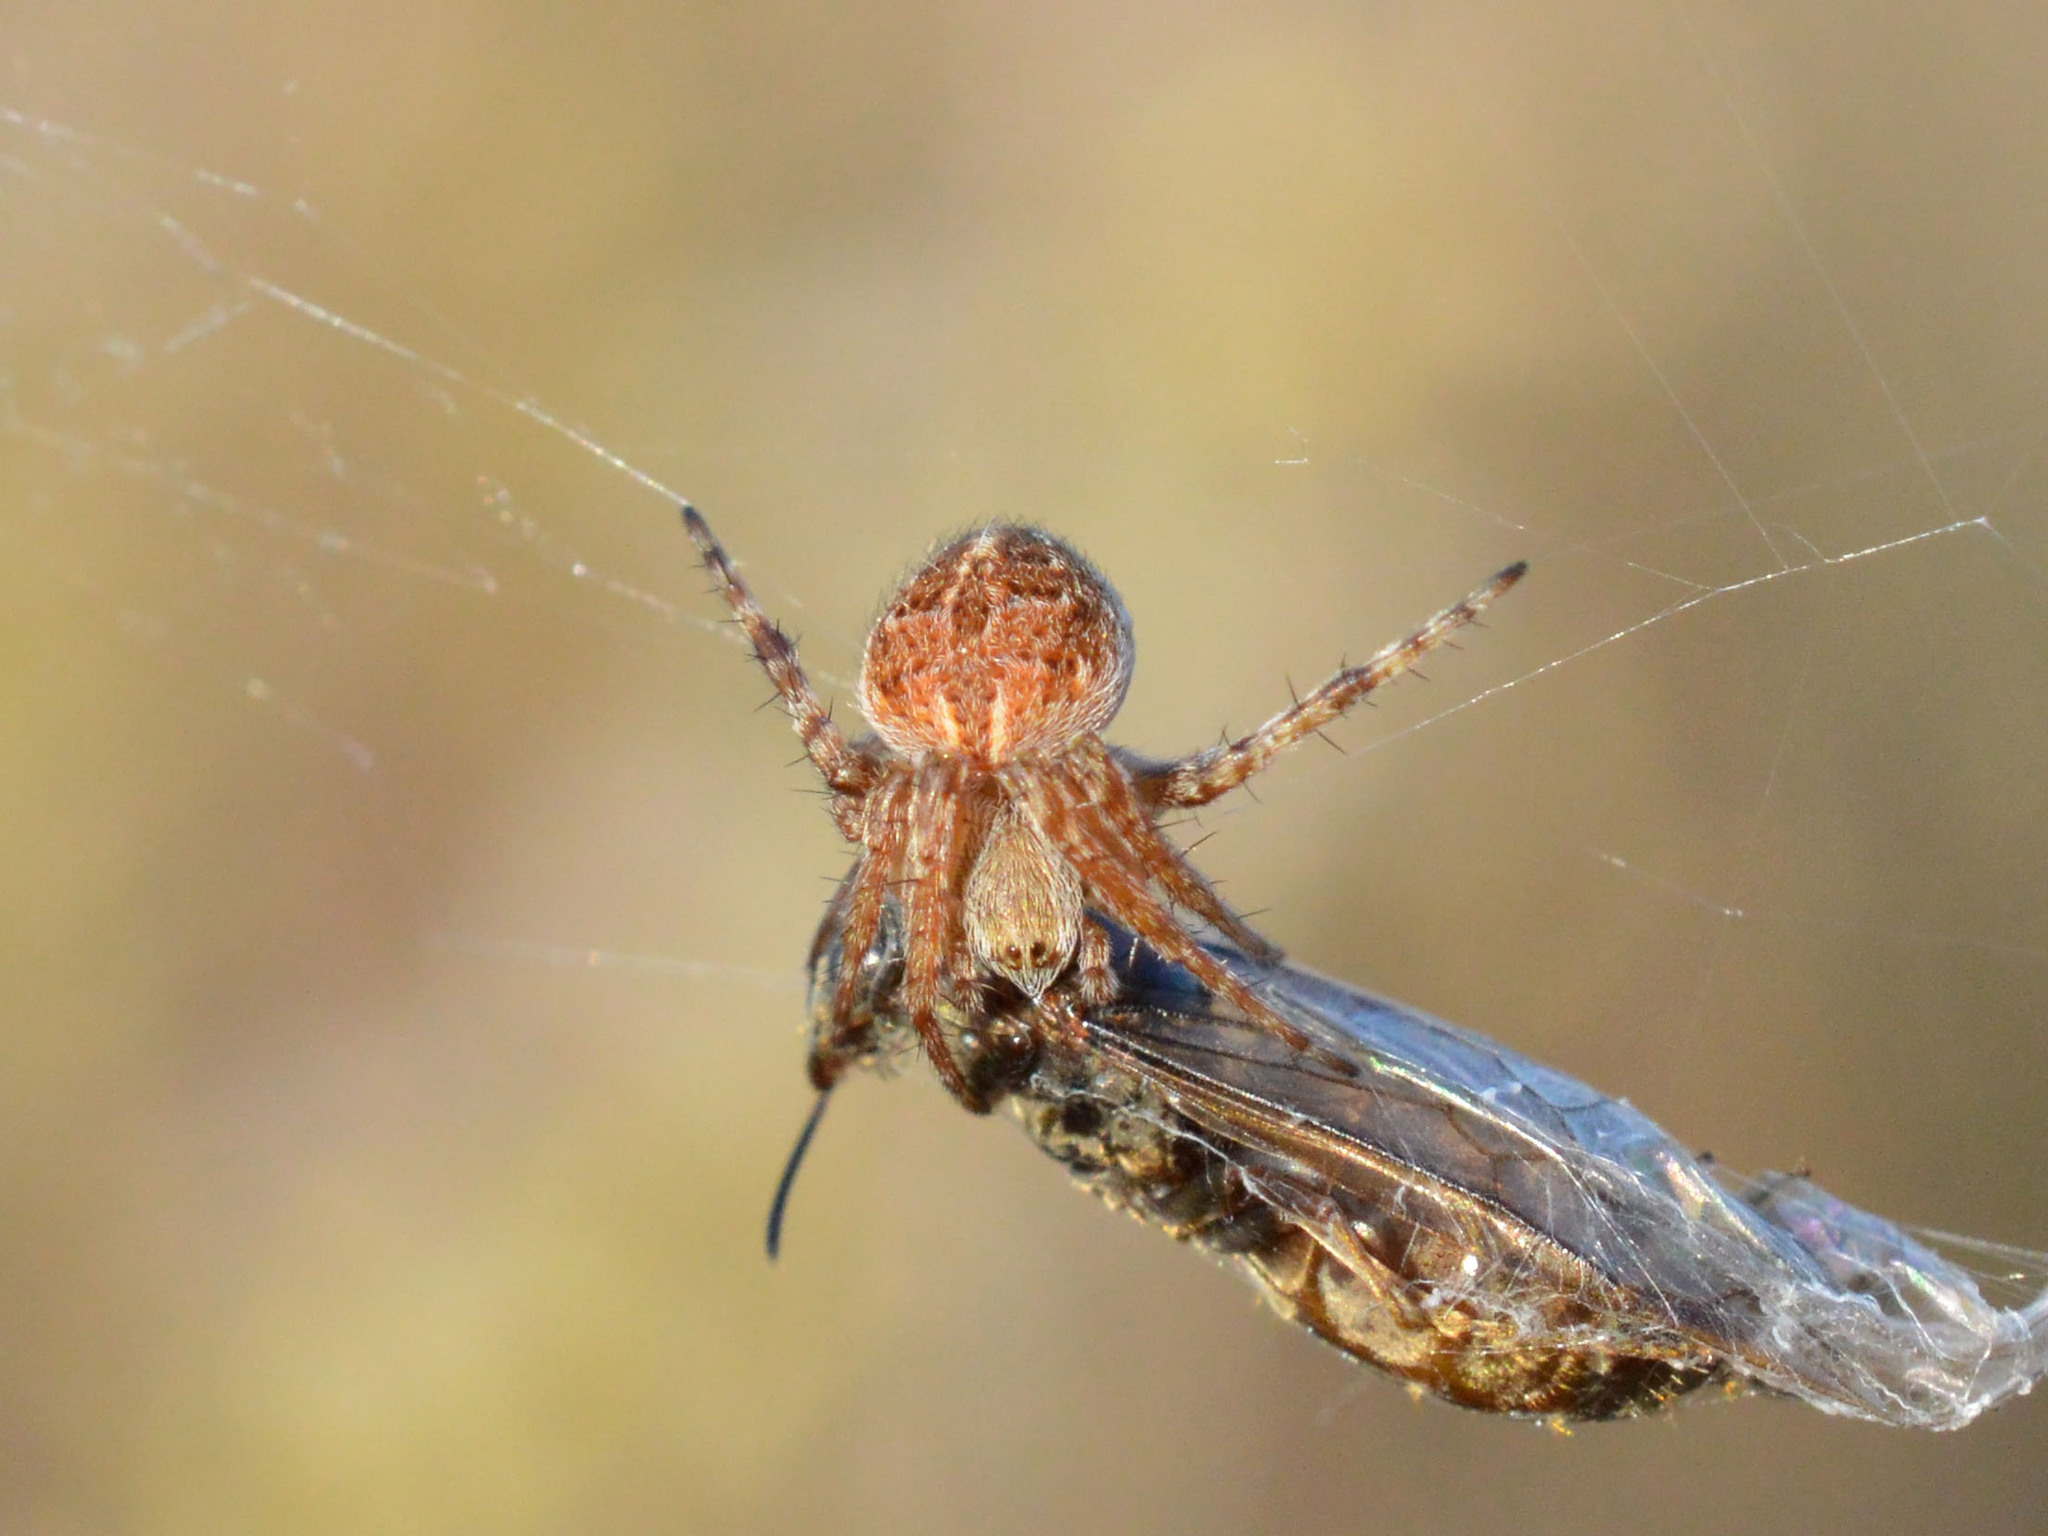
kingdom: Animalia
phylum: Arthropoda
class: Arachnida
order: Araneae
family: Araneidae
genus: Agalenatea
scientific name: Agalenatea redii
